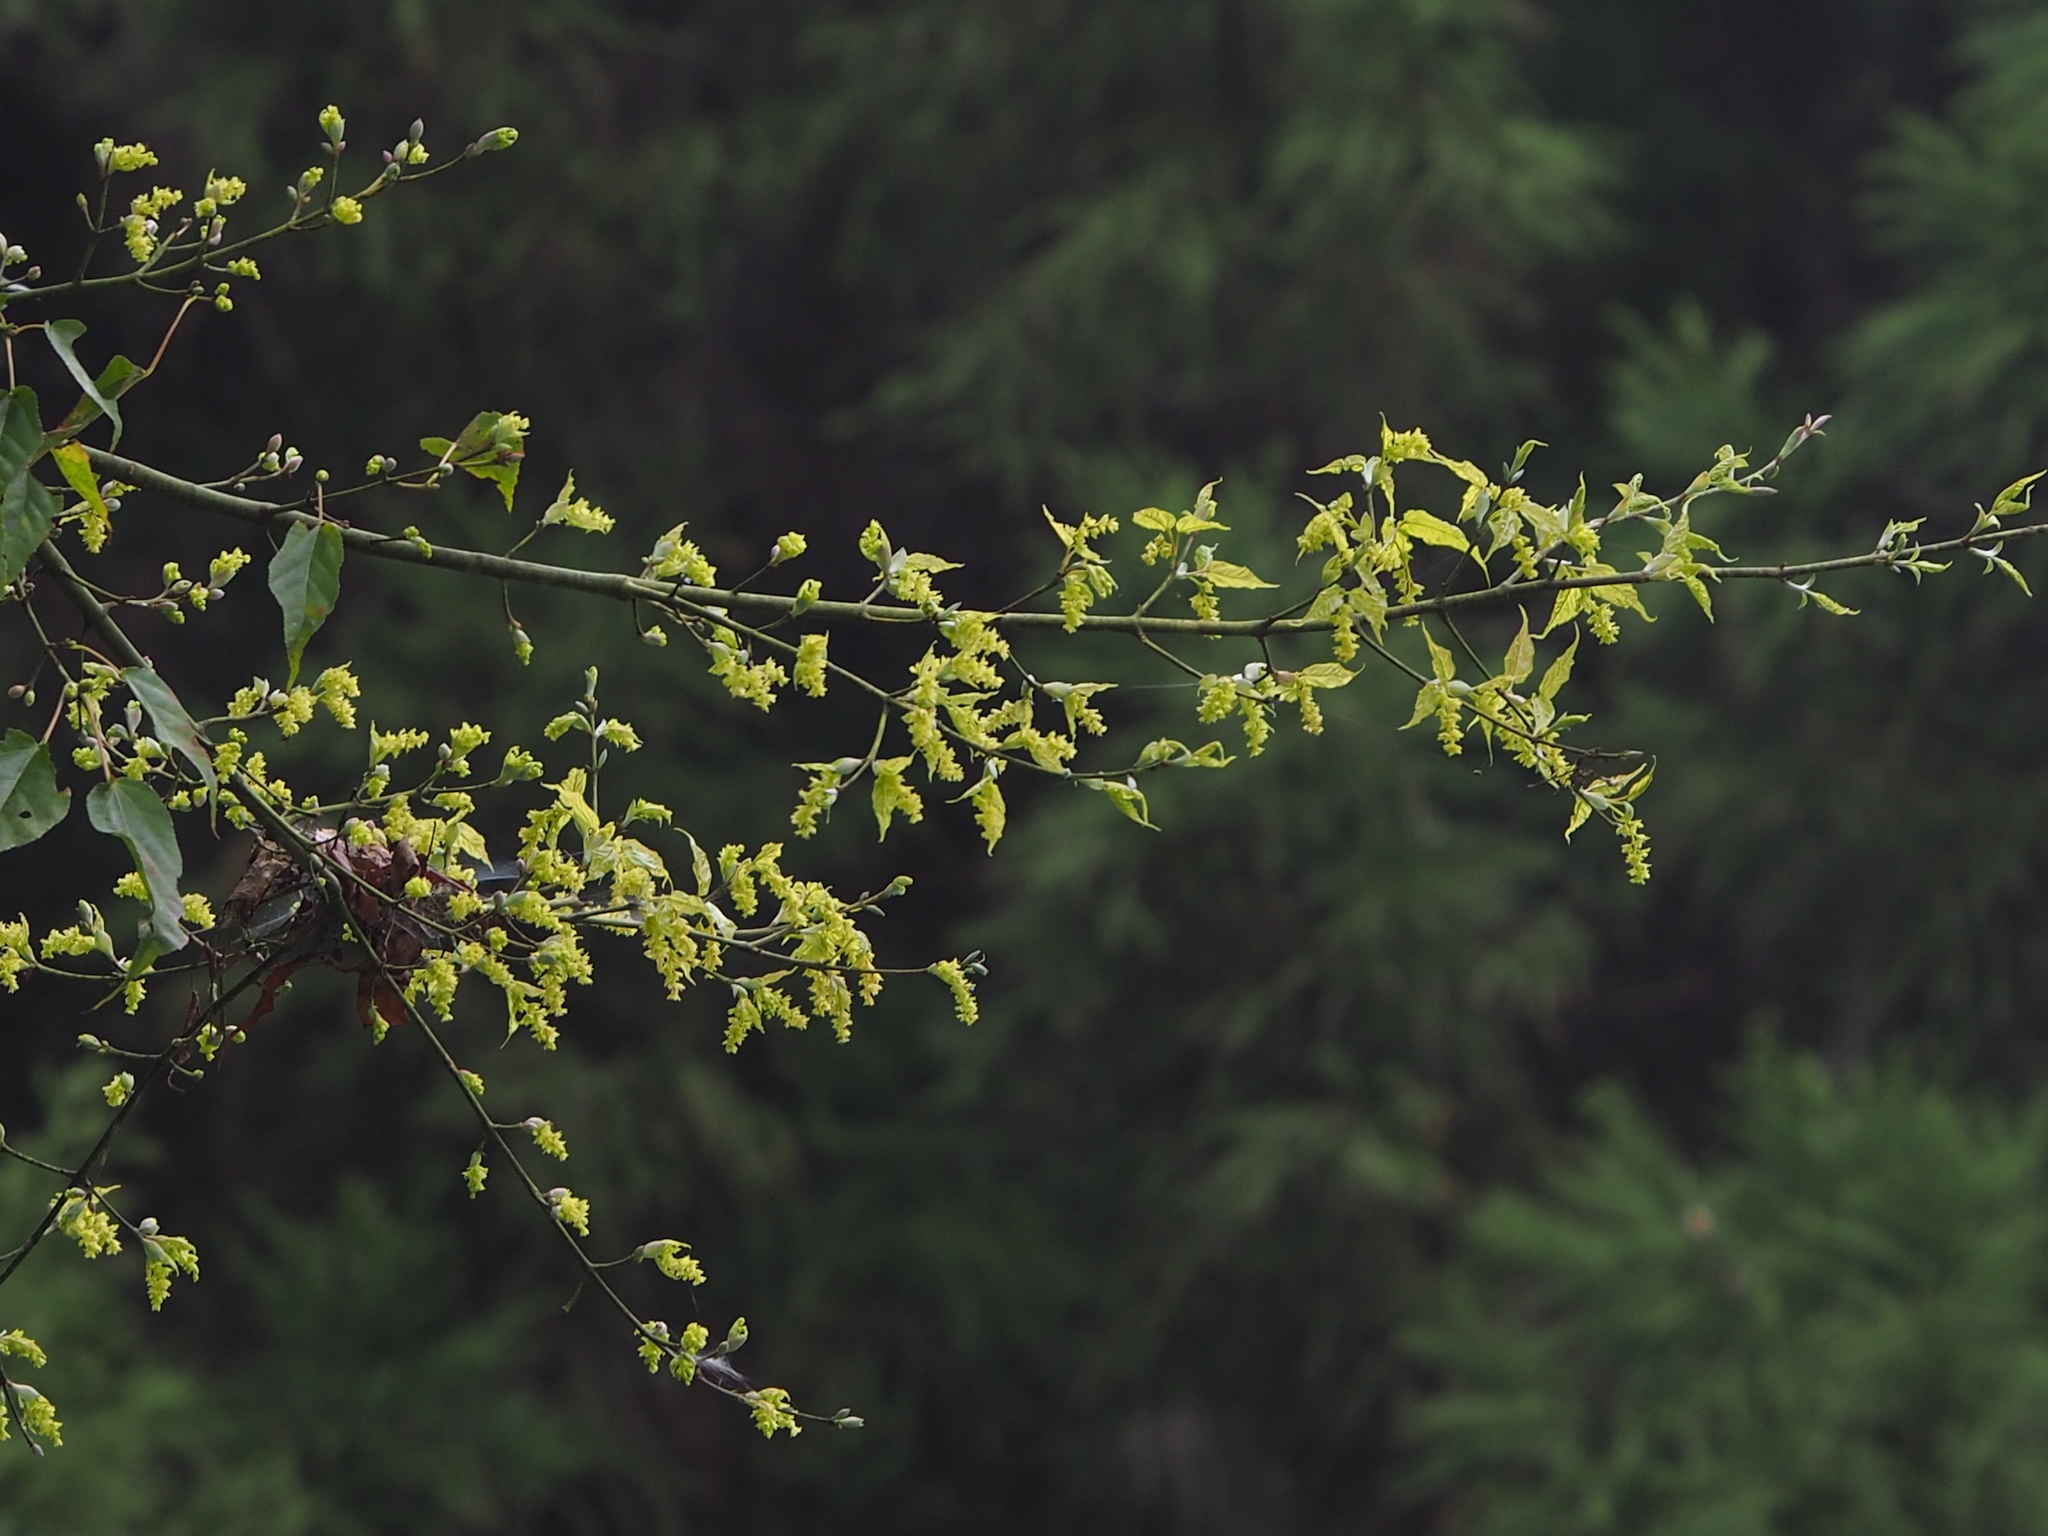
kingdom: Plantae
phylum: Tracheophyta
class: Magnoliopsida
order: Sapindales
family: Sapindaceae
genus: Acer
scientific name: Acer caudatifolium
